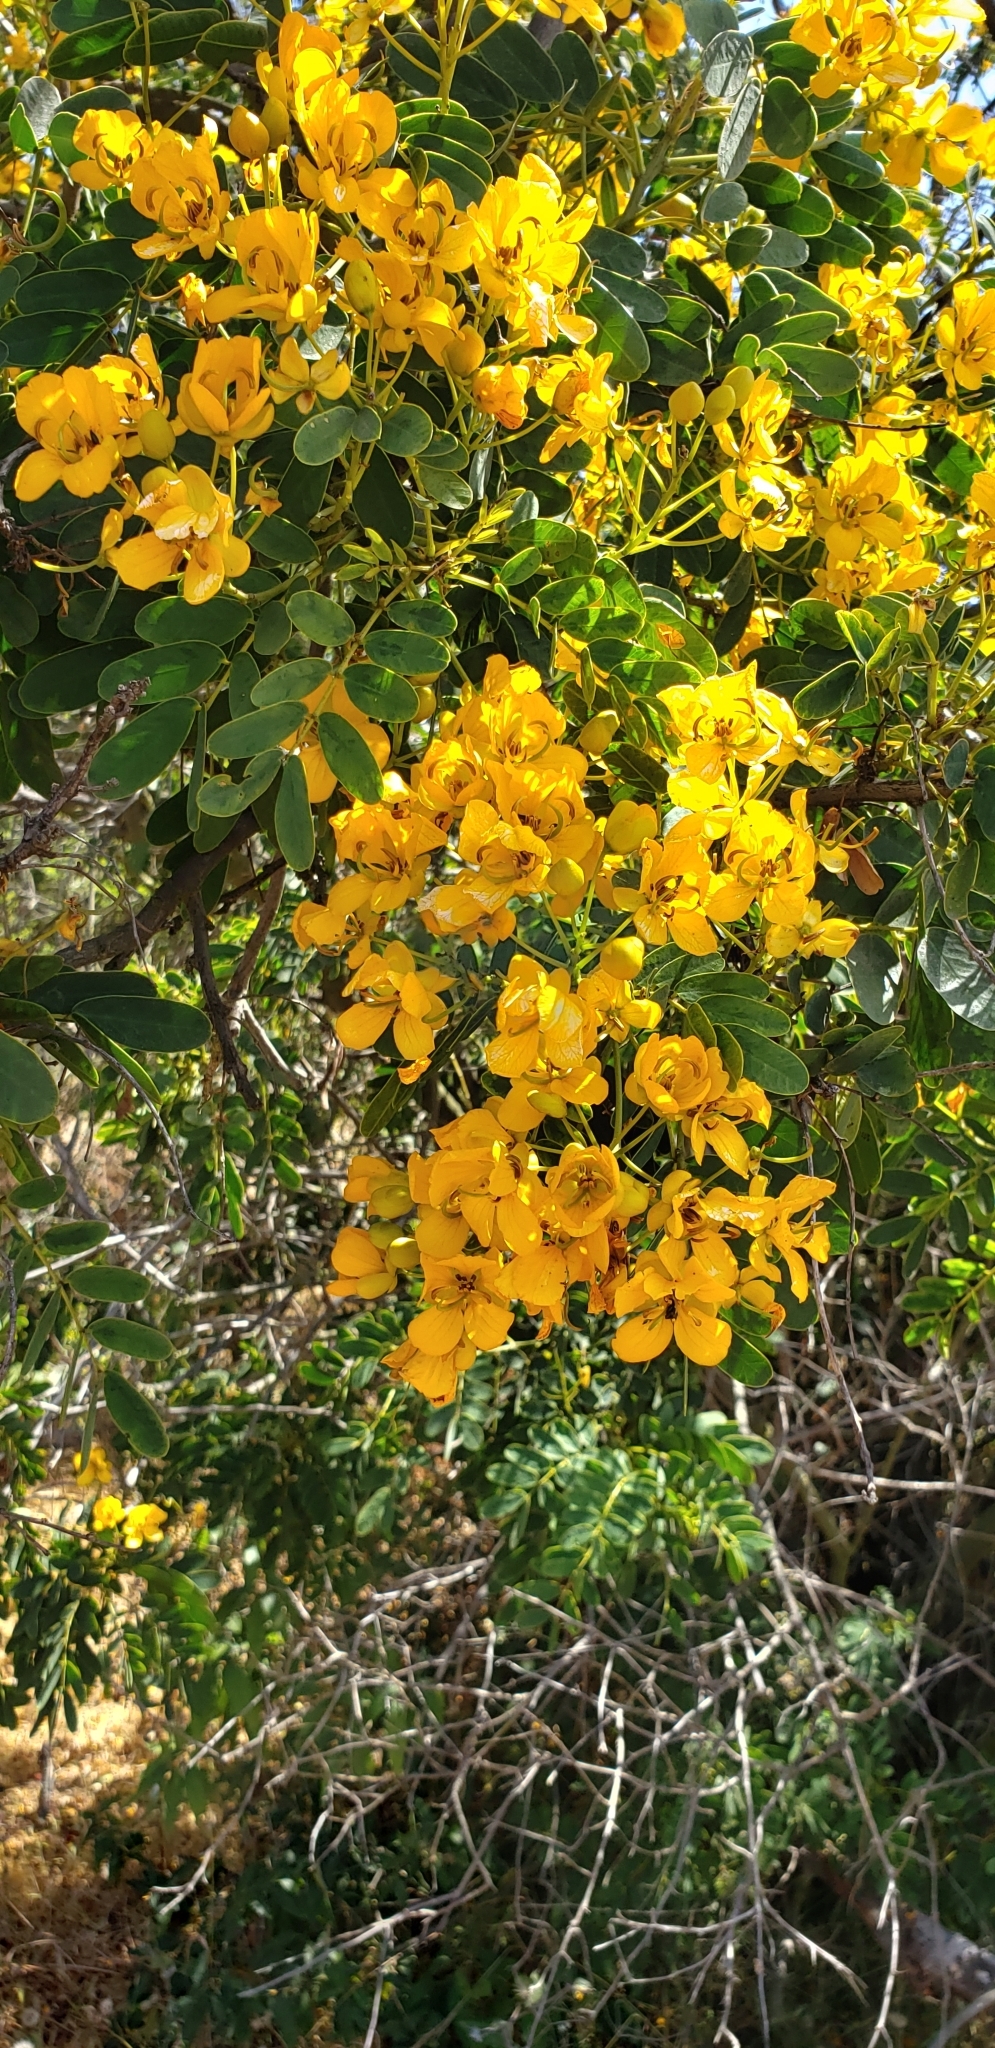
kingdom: Plantae
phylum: Tracheophyta
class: Magnoliopsida
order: Fabales
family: Fabaceae
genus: Senna
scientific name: Senna candolleana
